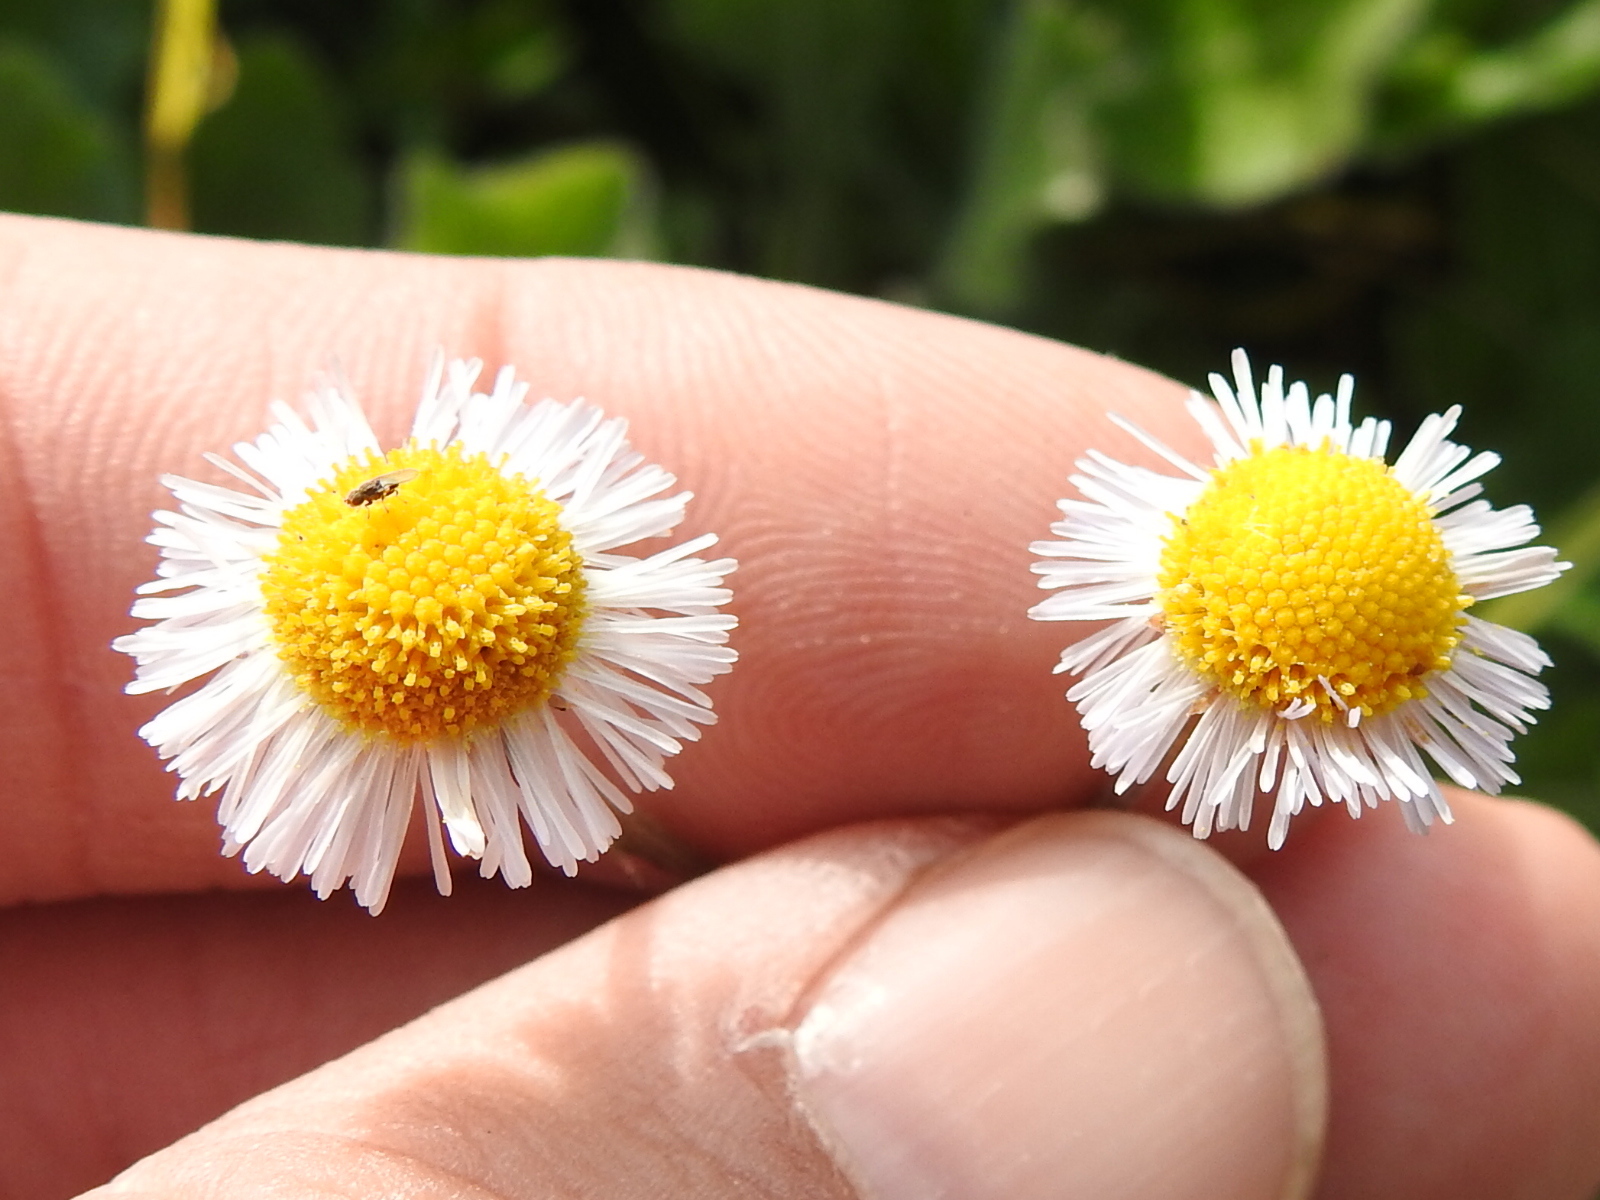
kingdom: Plantae
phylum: Tracheophyta
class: Magnoliopsida
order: Asterales
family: Asteraceae
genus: Erigeron
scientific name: Erigeron quercifolius
